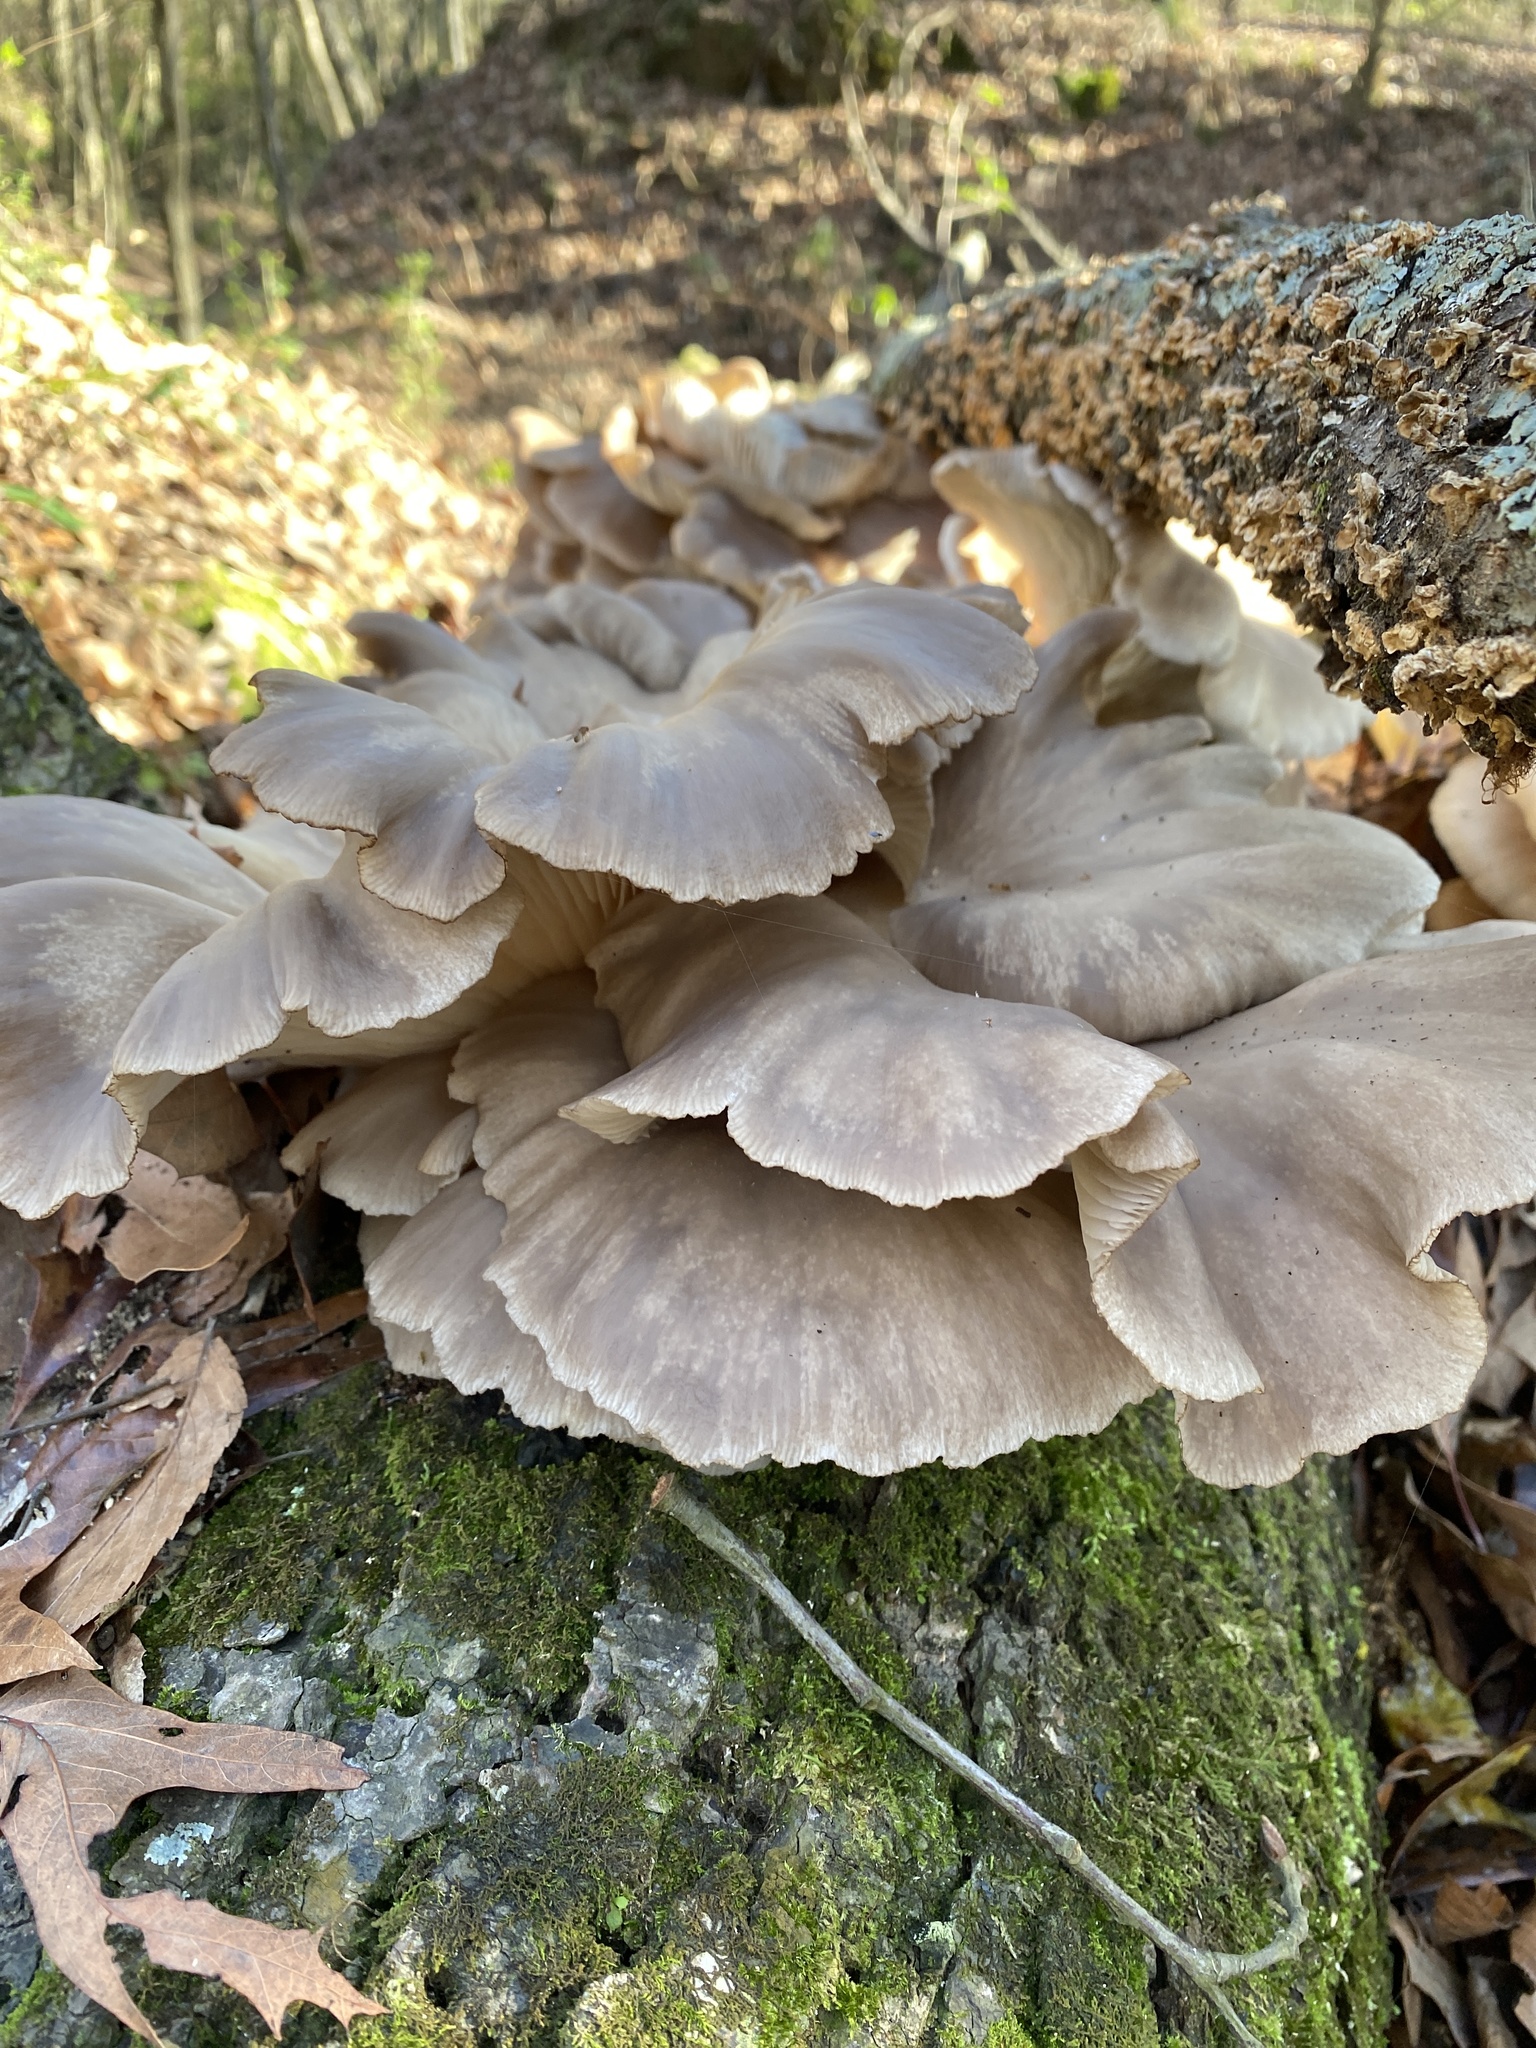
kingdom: Fungi
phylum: Basidiomycota
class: Agaricomycetes
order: Agaricales
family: Pleurotaceae
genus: Pleurotus
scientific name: Pleurotus ostreatus
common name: Oyster mushroom
